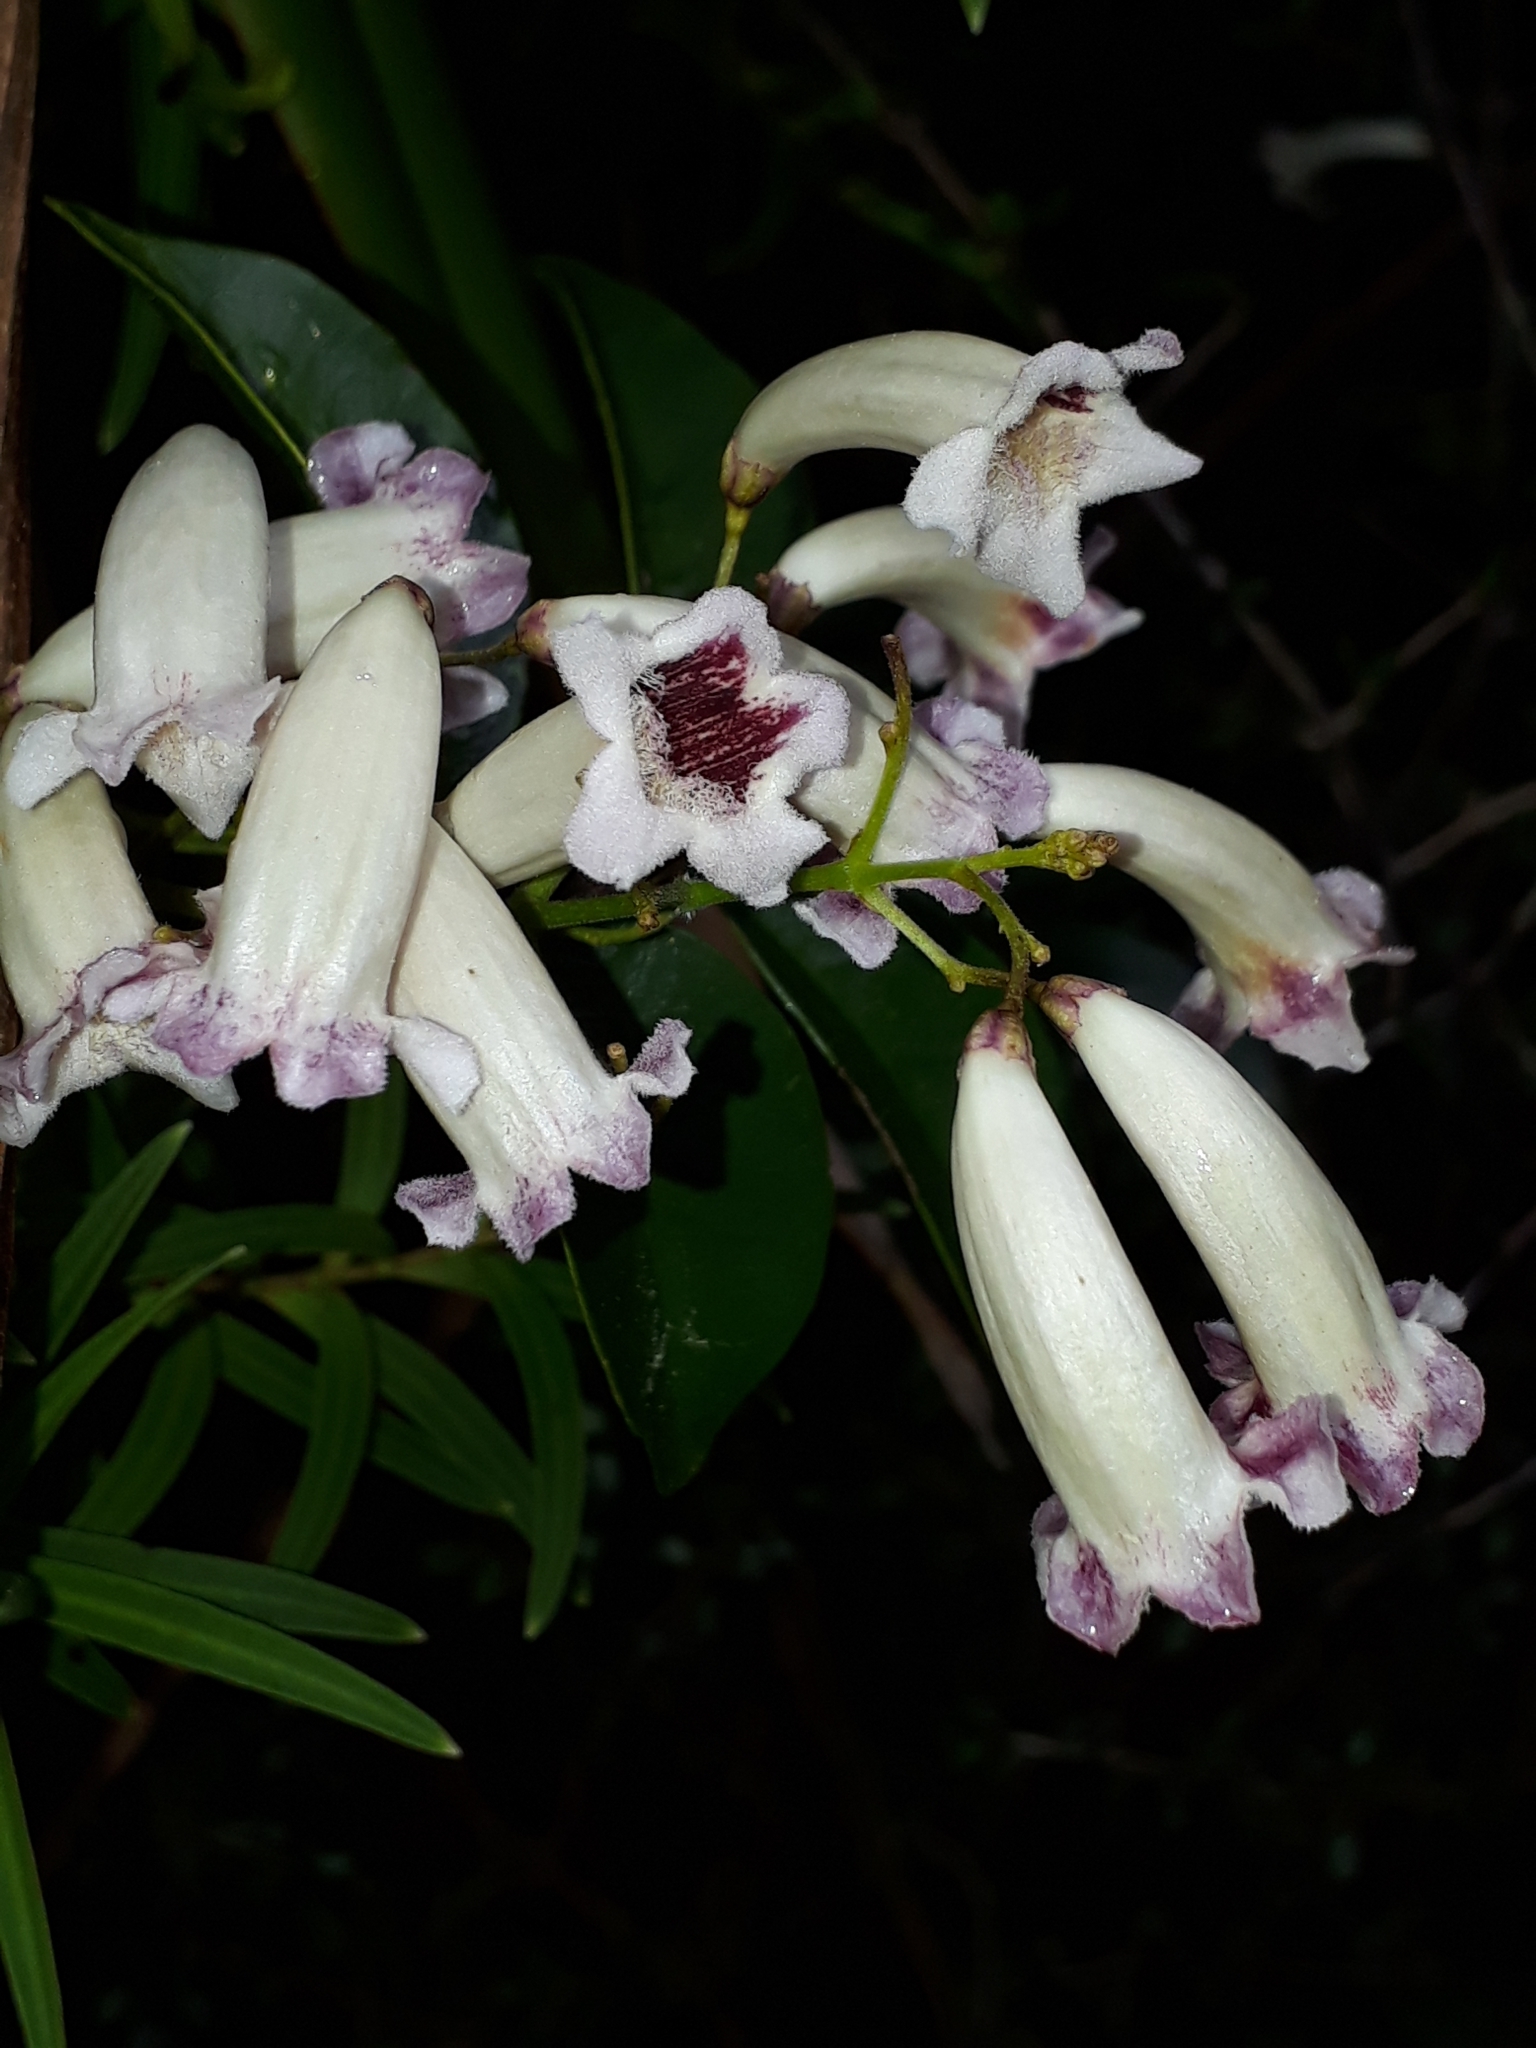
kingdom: Plantae
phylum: Tracheophyta
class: Magnoliopsida
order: Lamiales
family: Bignoniaceae
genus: Pandorea
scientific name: Pandorea pandorana
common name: Wonga-wonga-vine
